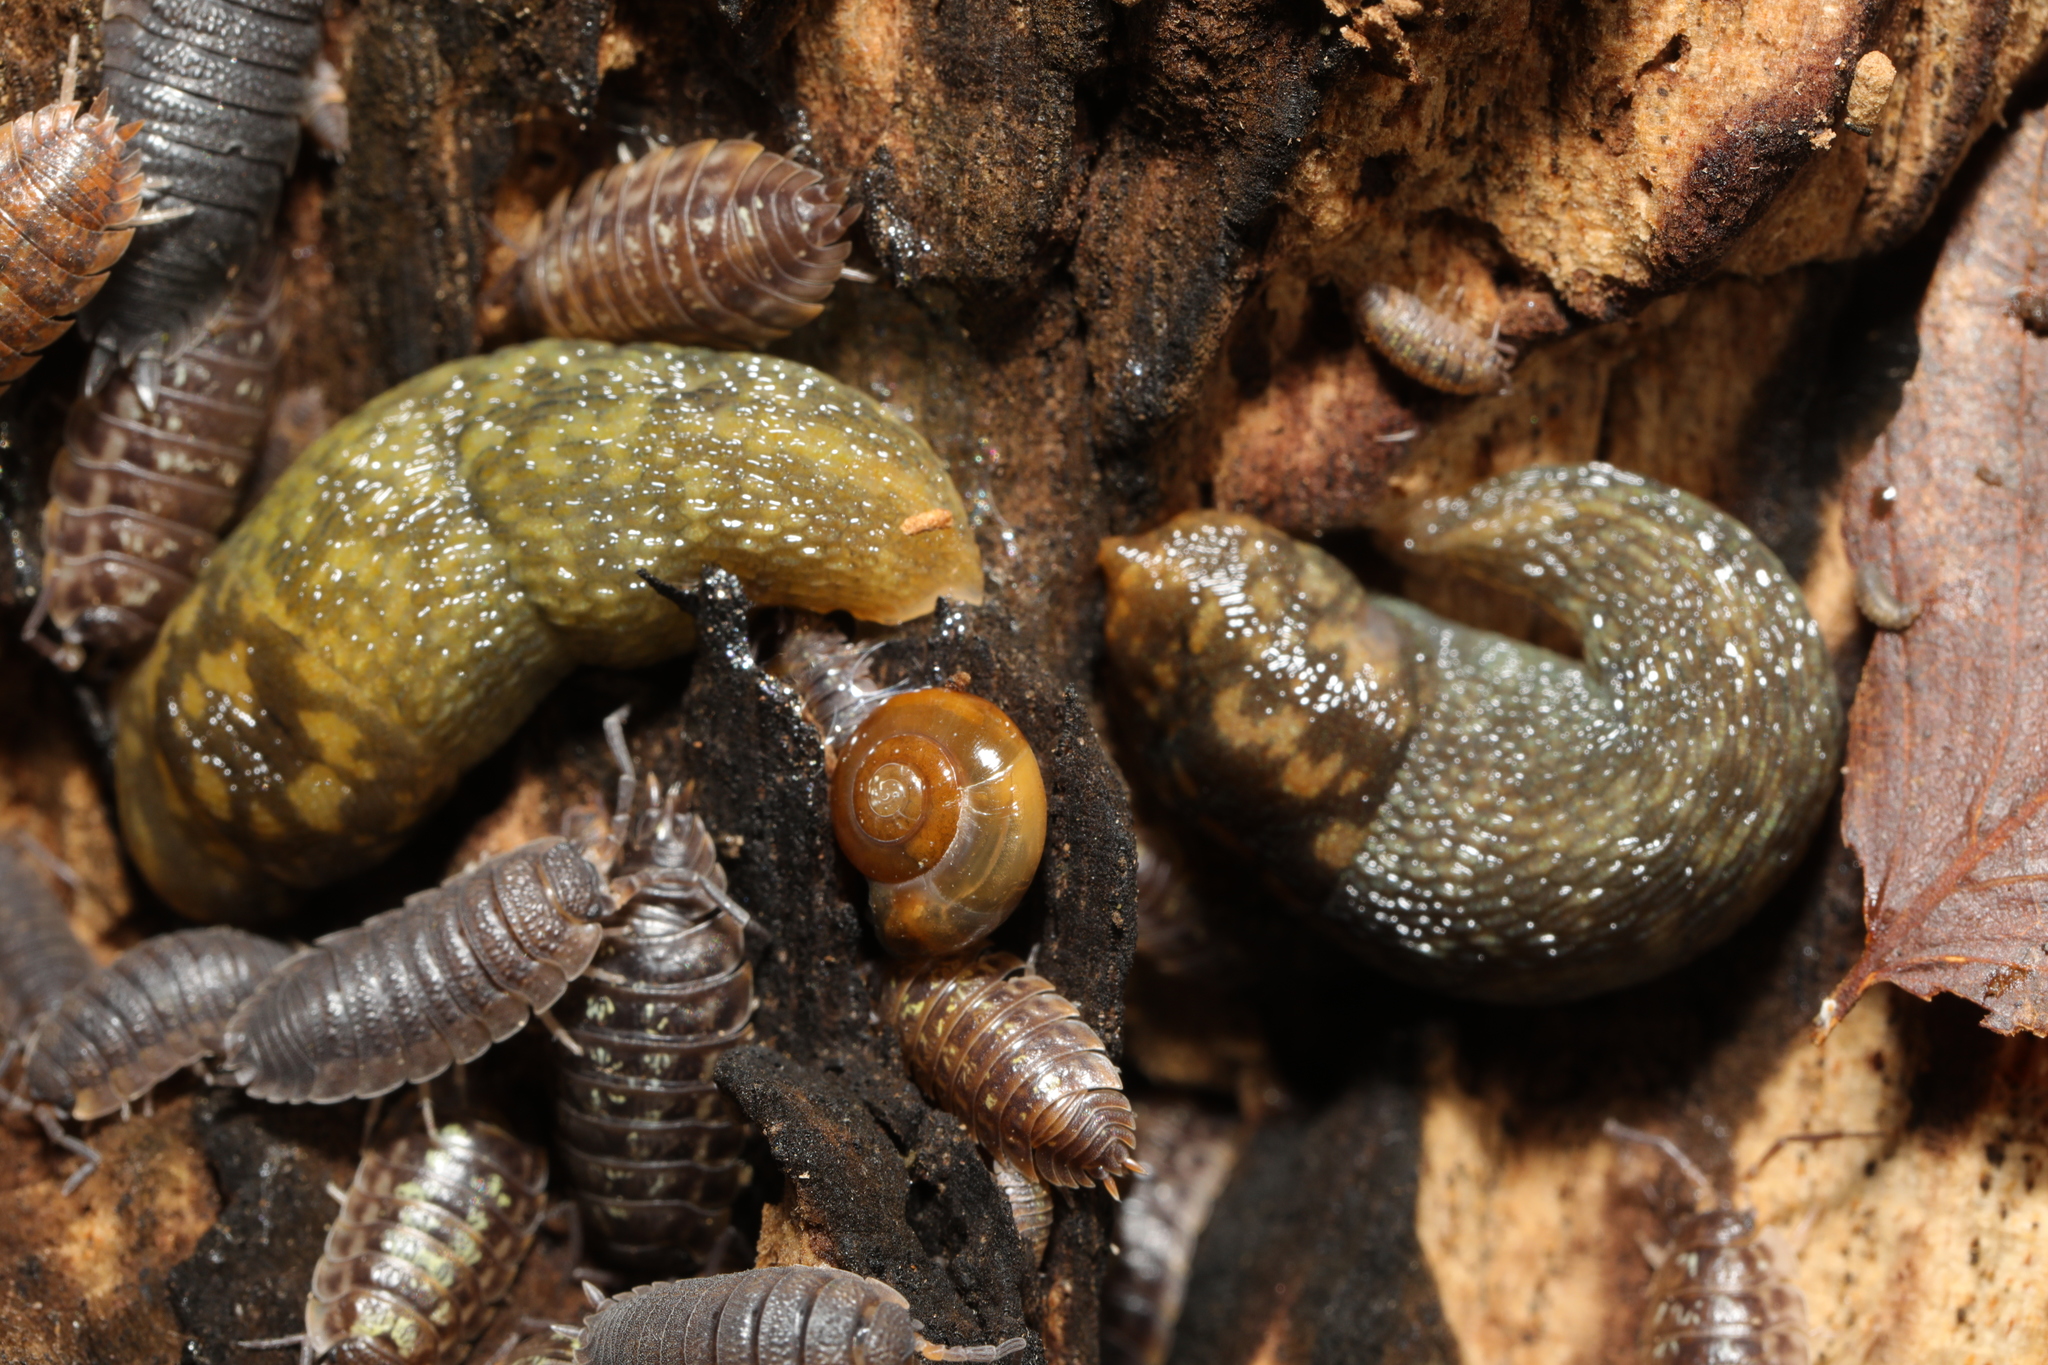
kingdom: Animalia
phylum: Mollusca
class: Gastropoda
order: Stylommatophora
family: Limacidae
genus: Limacus
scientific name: Limacus maculatus
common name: Irish yellow slug
